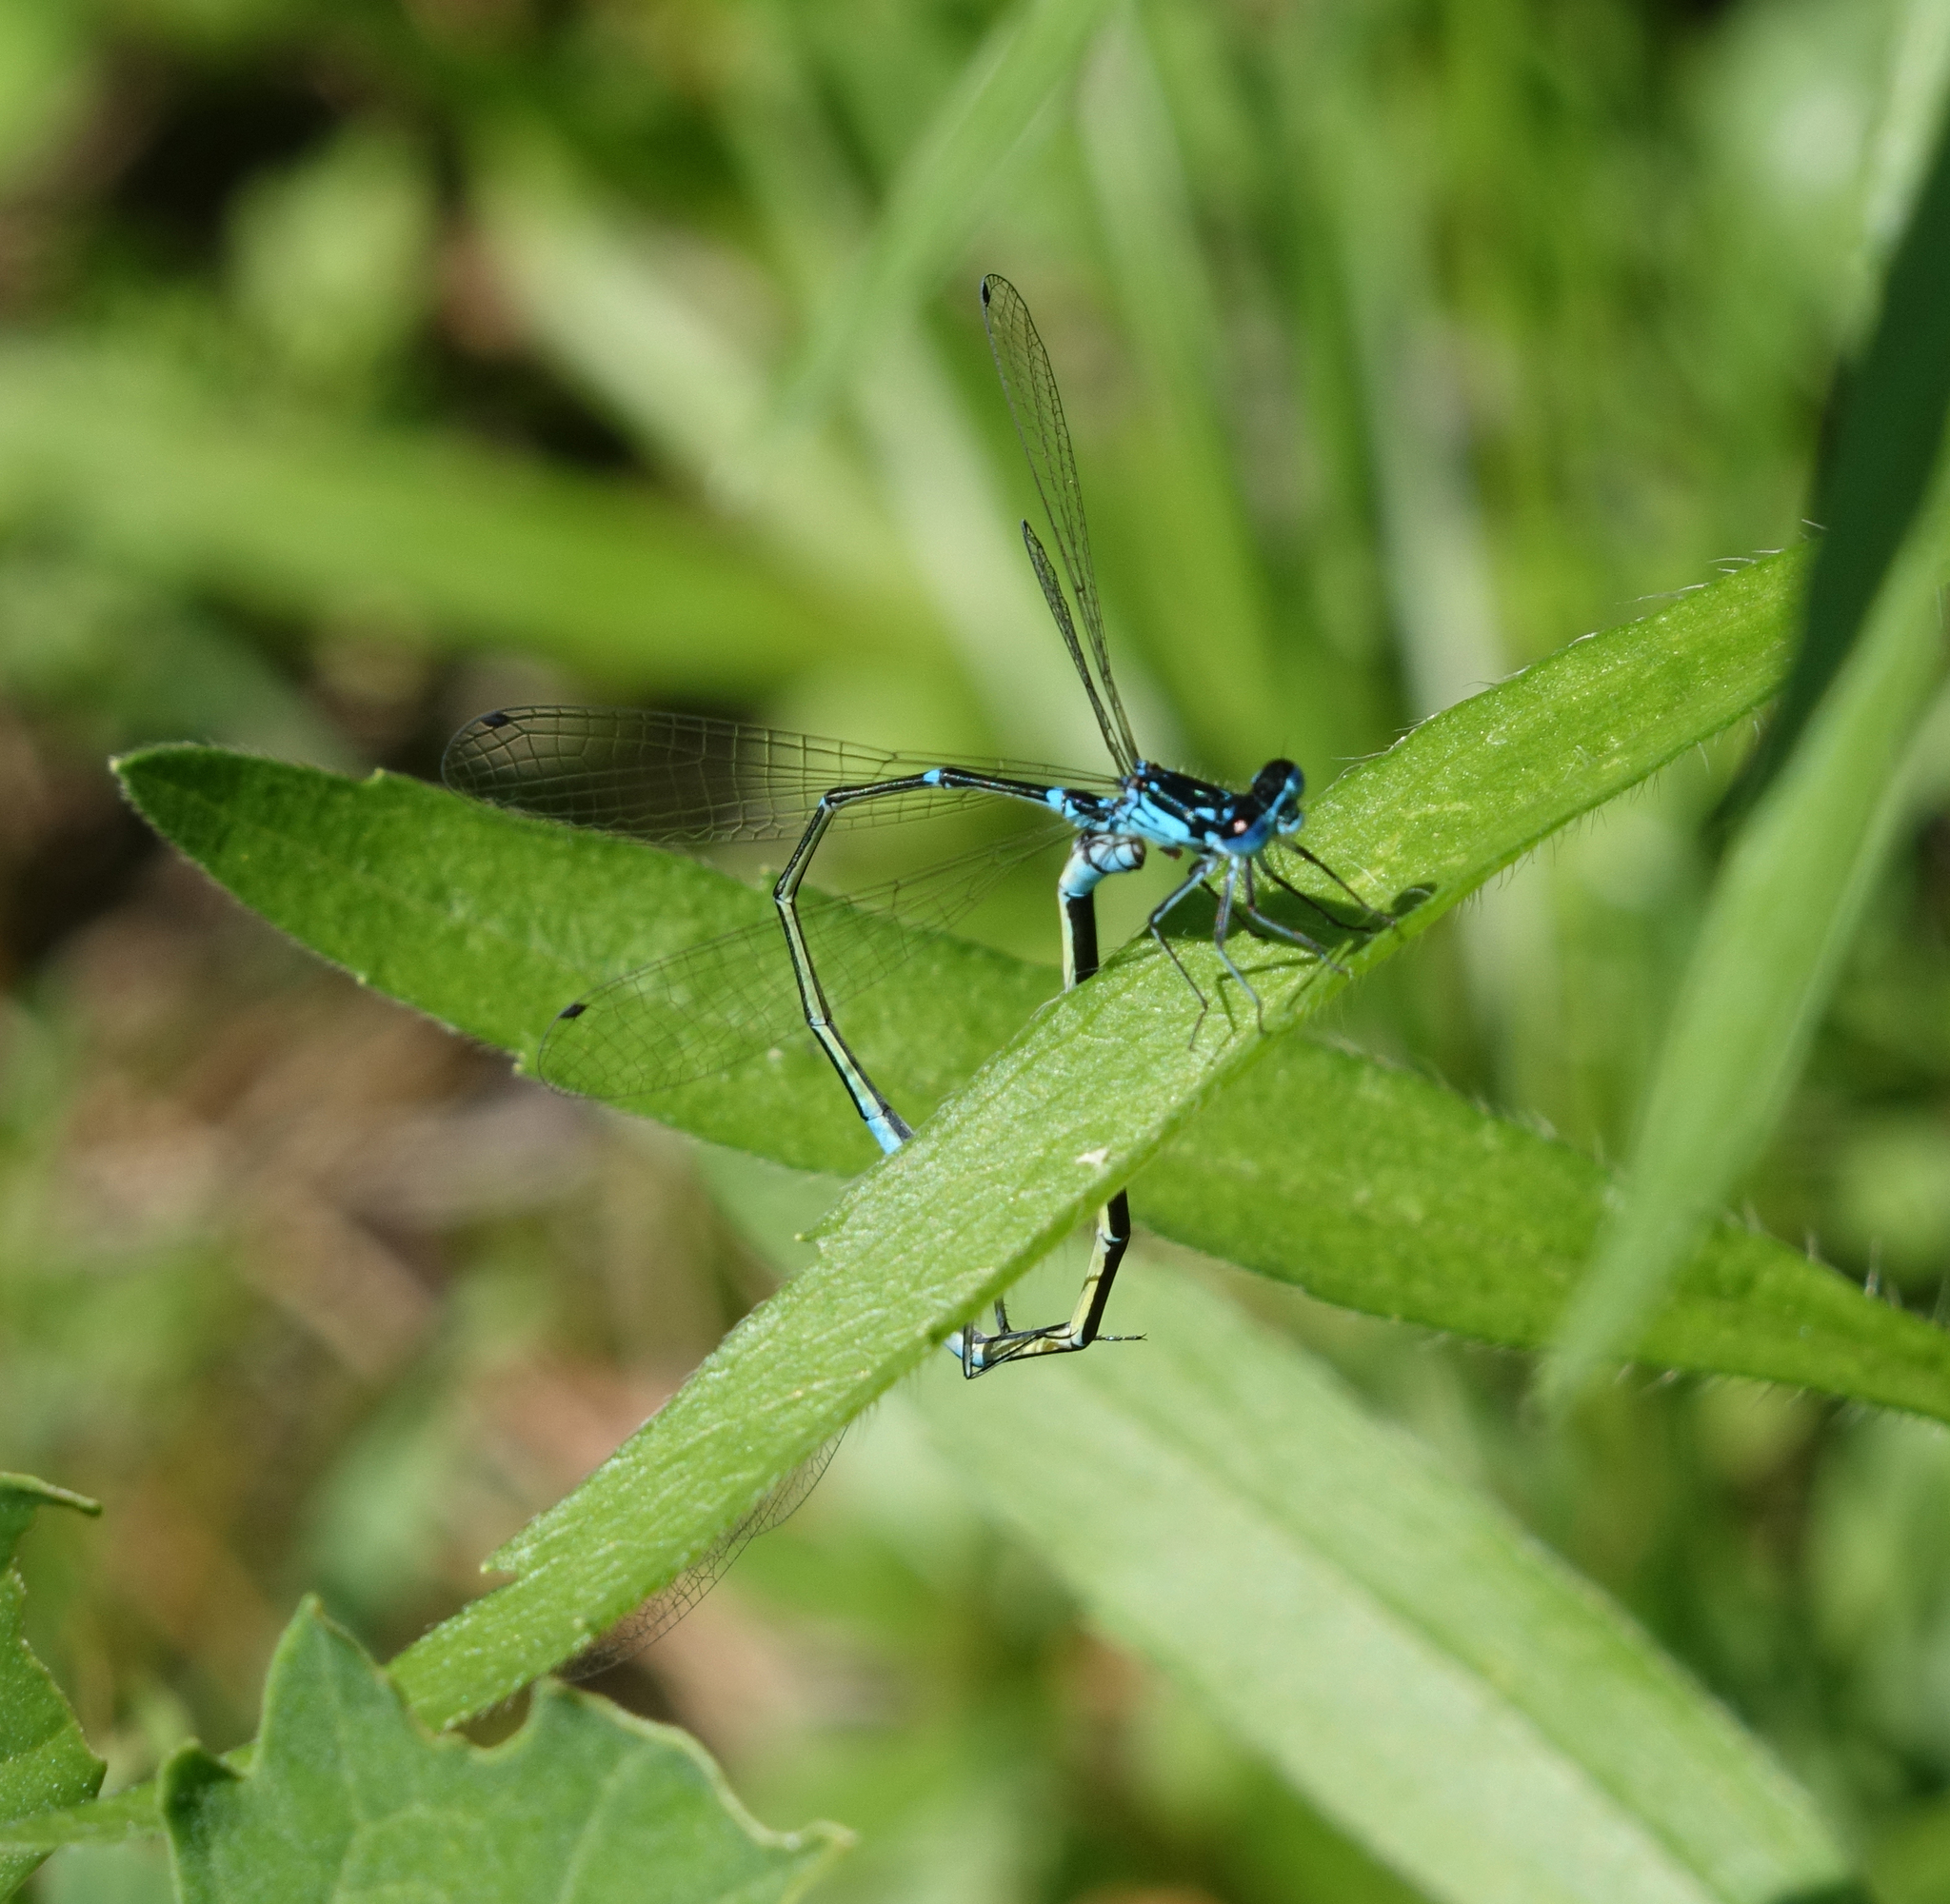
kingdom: Animalia
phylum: Arthropoda
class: Insecta
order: Odonata
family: Coenagrionidae
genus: Coenagrion
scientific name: Coenagrion pulchellum
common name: Variable bluet
